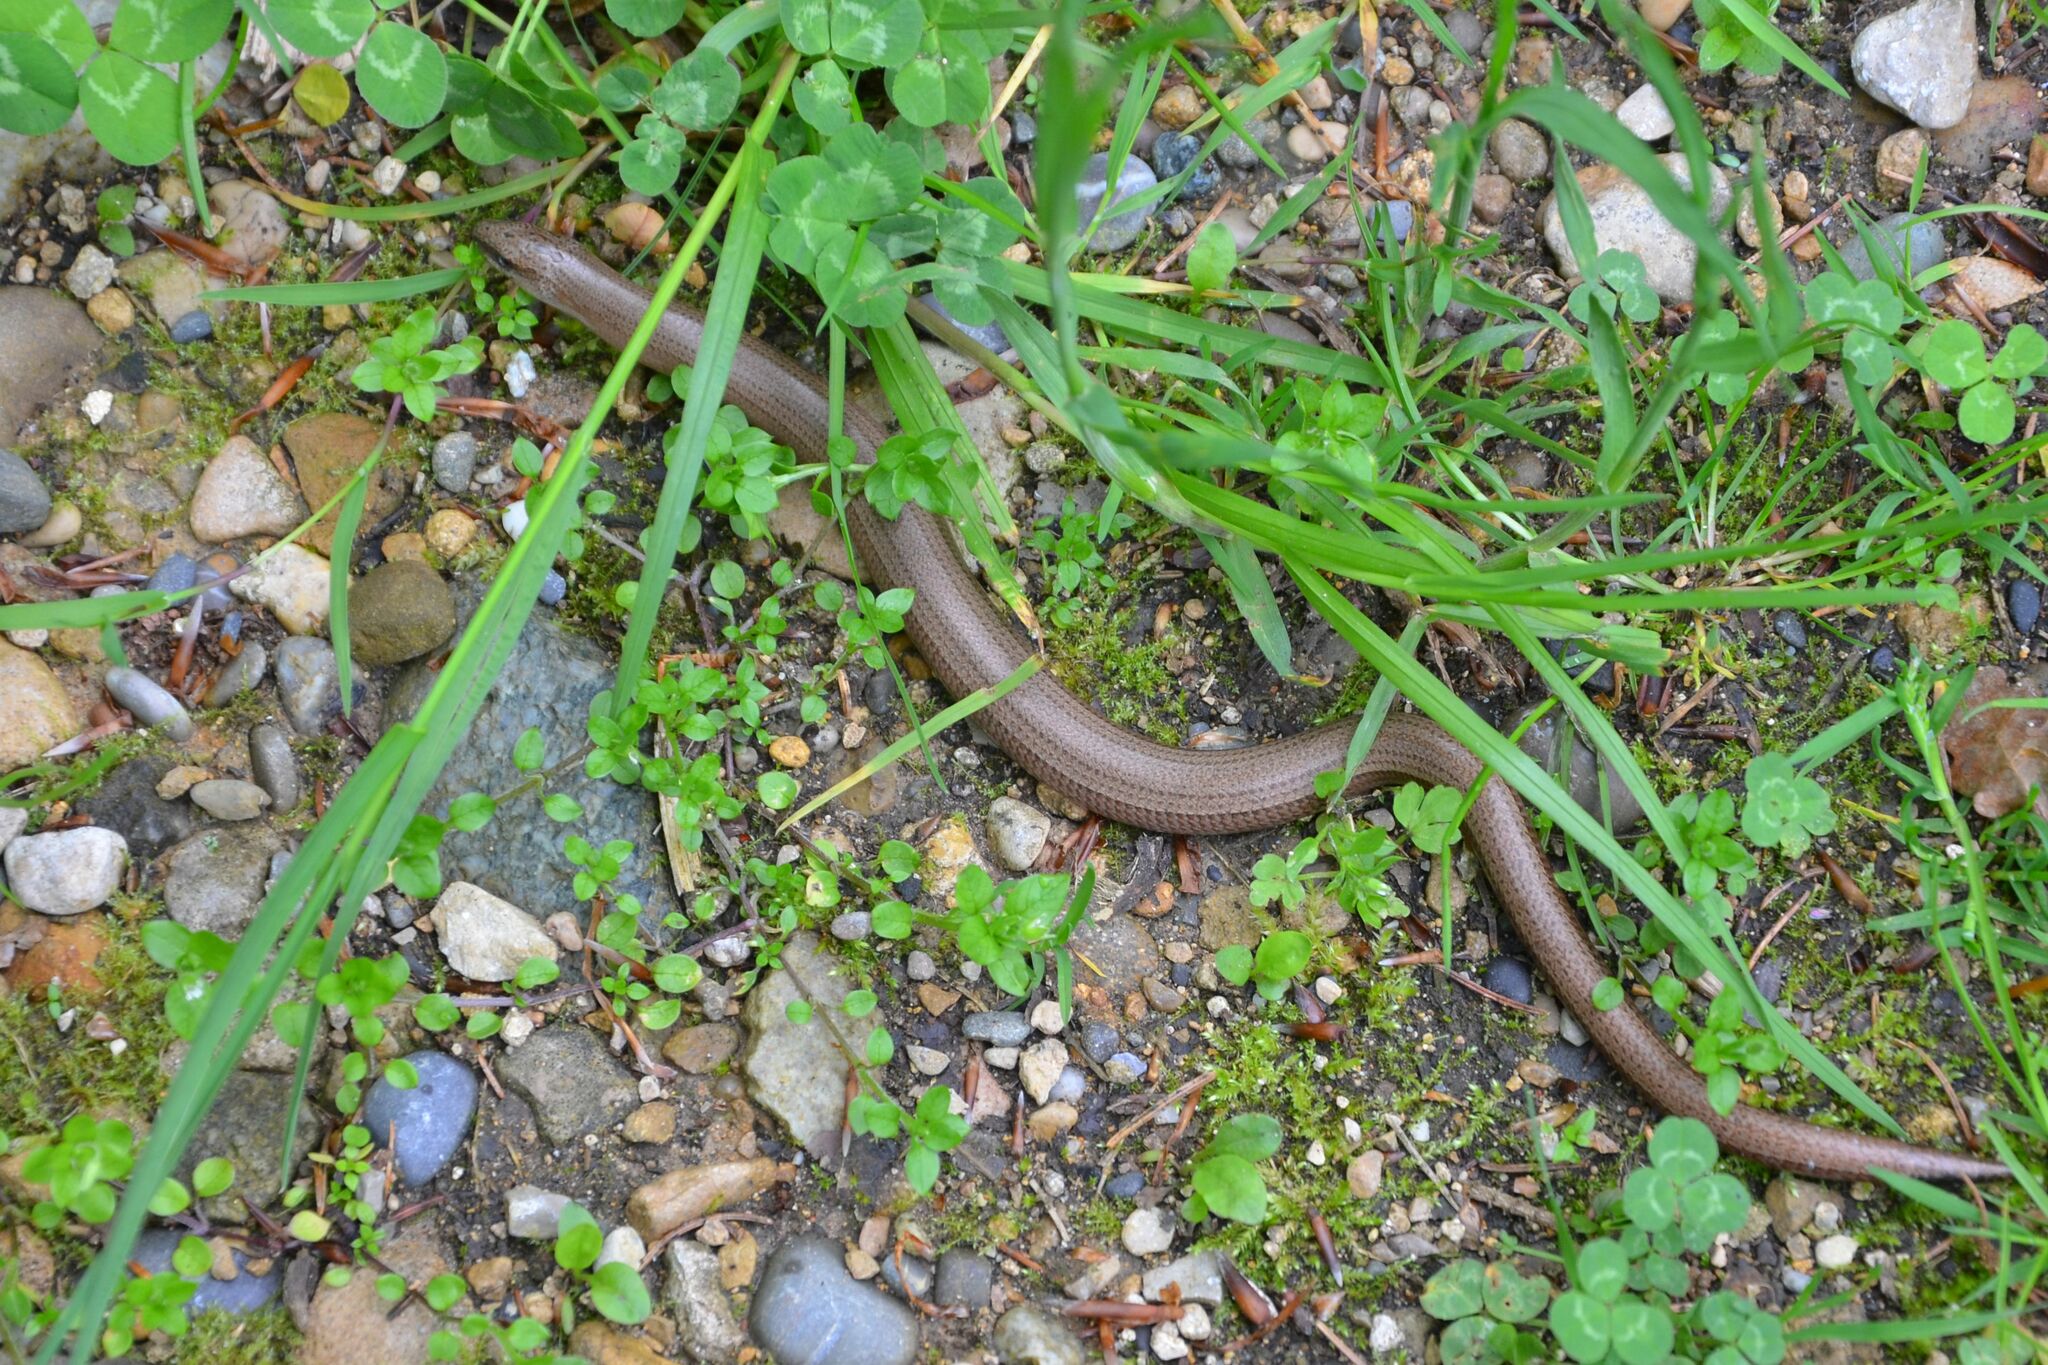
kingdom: Animalia
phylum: Chordata
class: Squamata
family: Anguidae
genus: Anguis
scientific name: Anguis fragilis
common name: Slow worm
